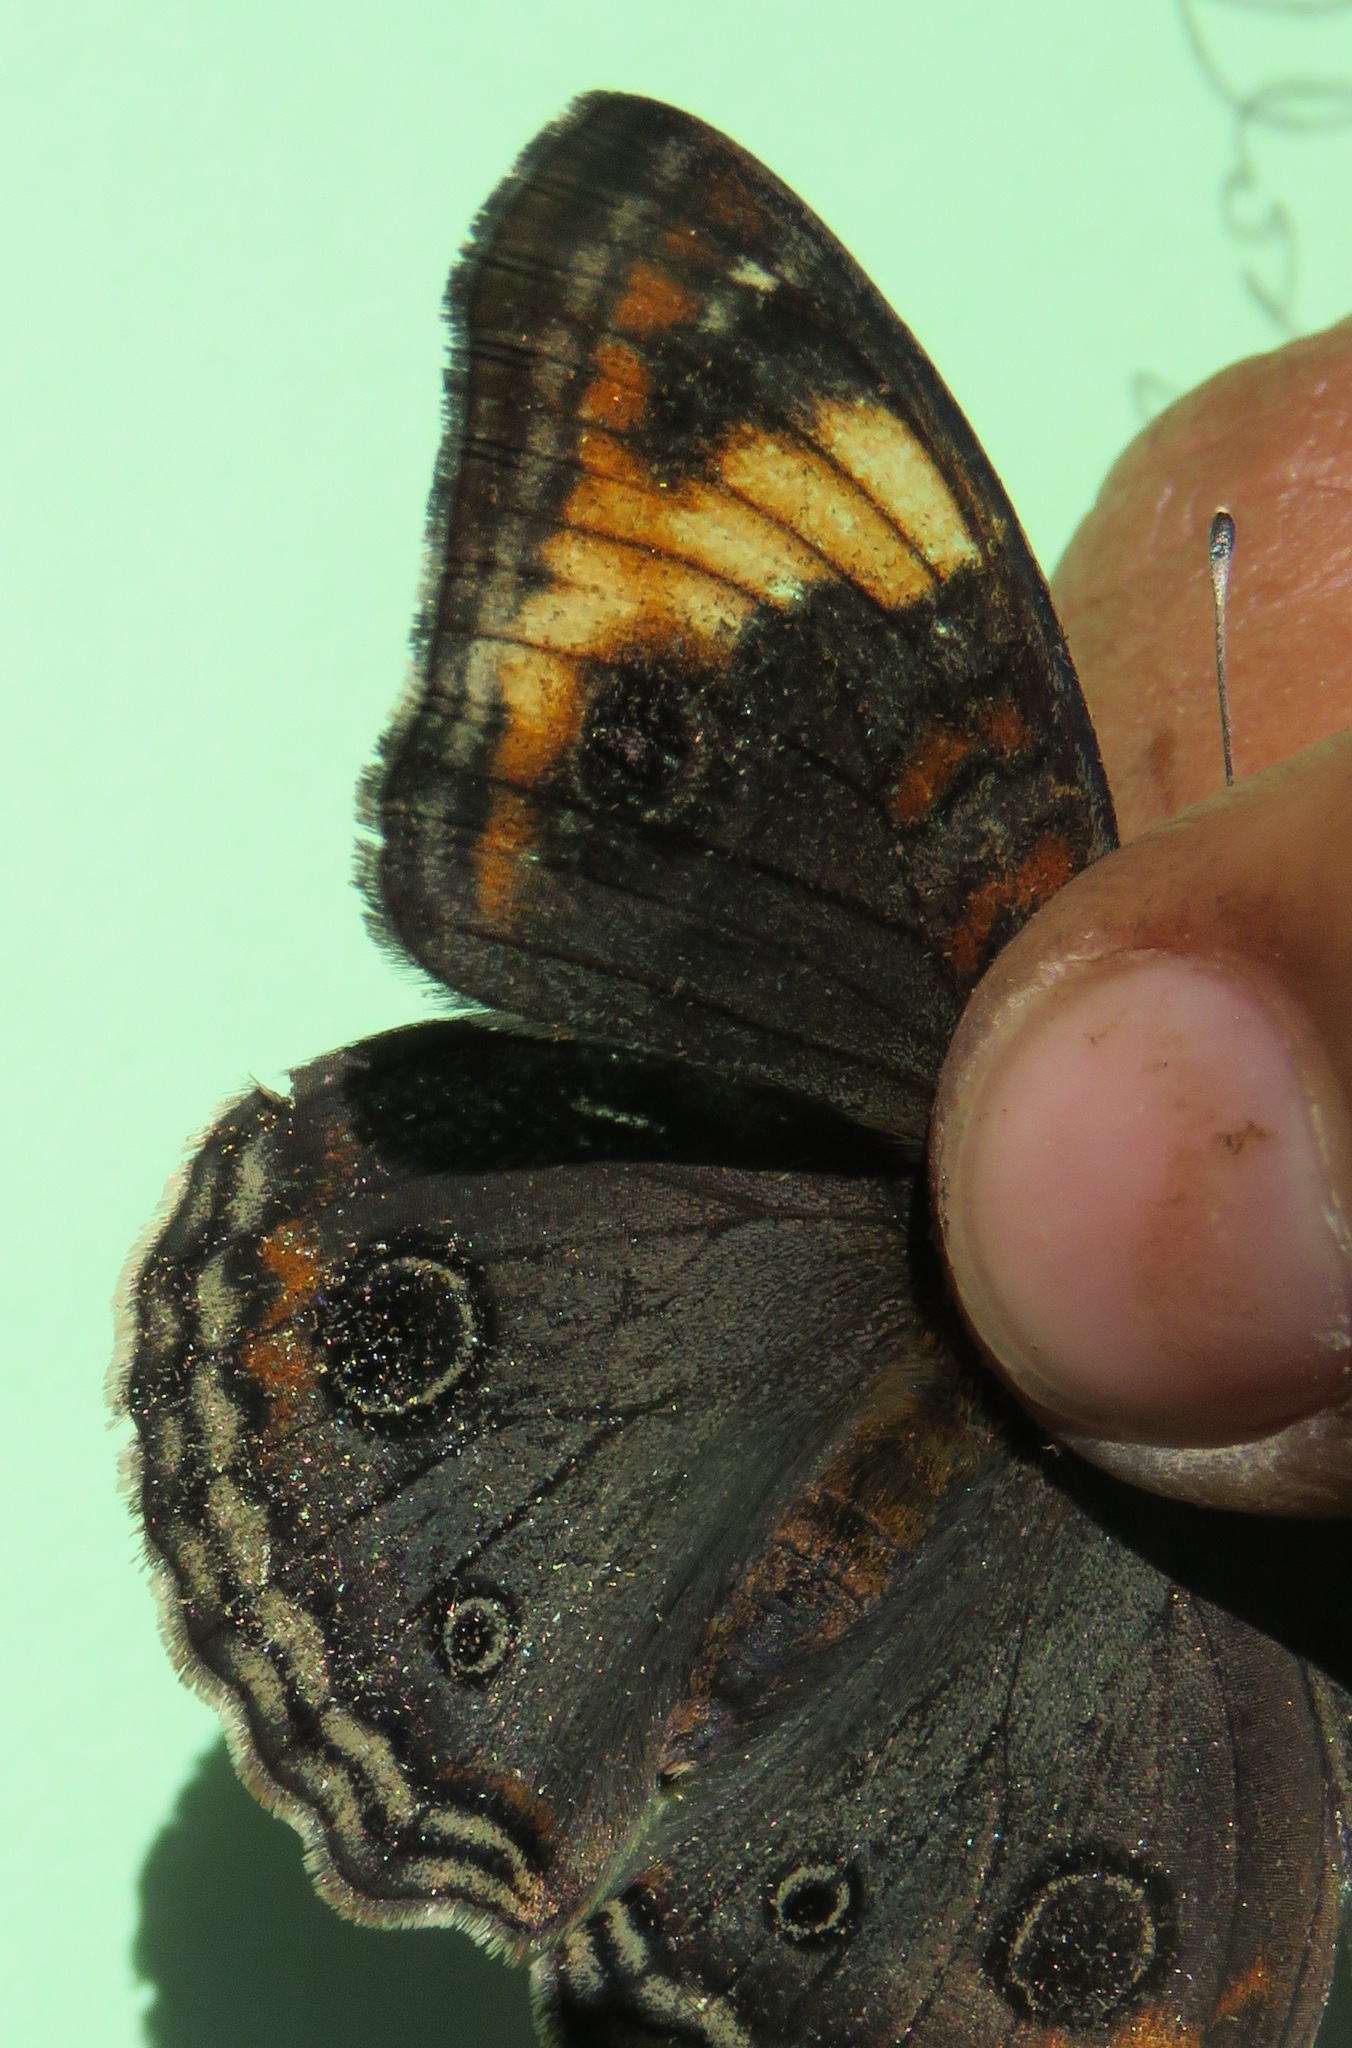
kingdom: Animalia
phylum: Arthropoda
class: Insecta
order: Lepidoptera
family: Nymphalidae
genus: Junonia
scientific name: Junonia lavinia
